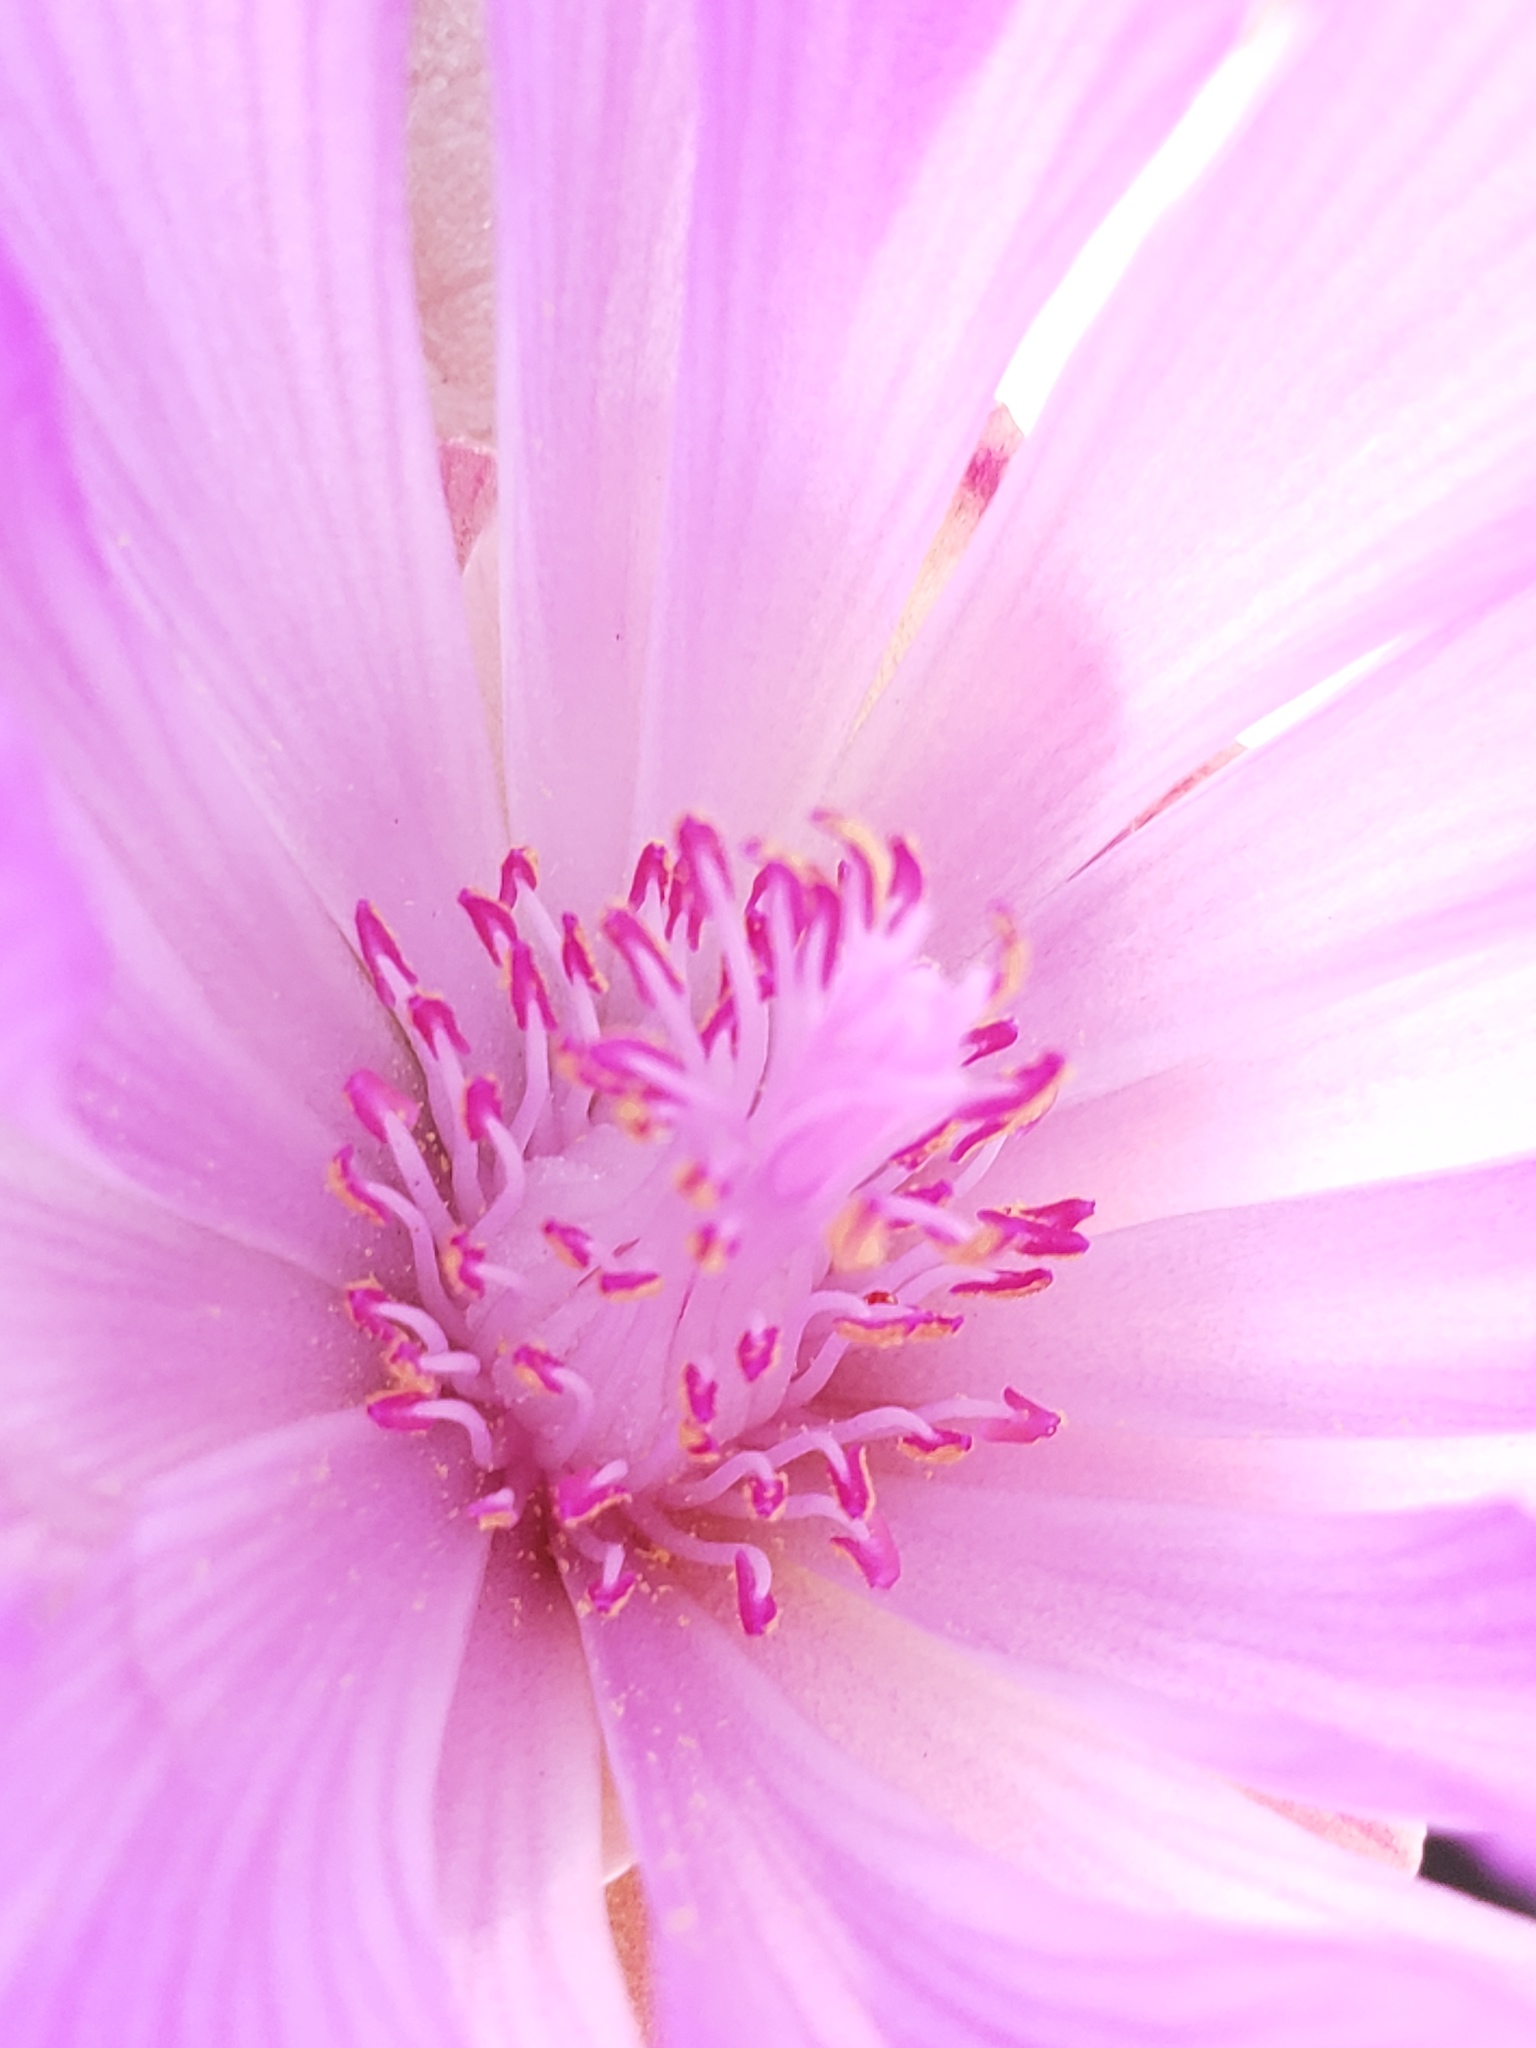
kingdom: Plantae
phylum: Tracheophyta
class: Magnoliopsida
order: Caryophyllales
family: Montiaceae
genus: Lewisia
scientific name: Lewisia rediviva
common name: Bitter-root
